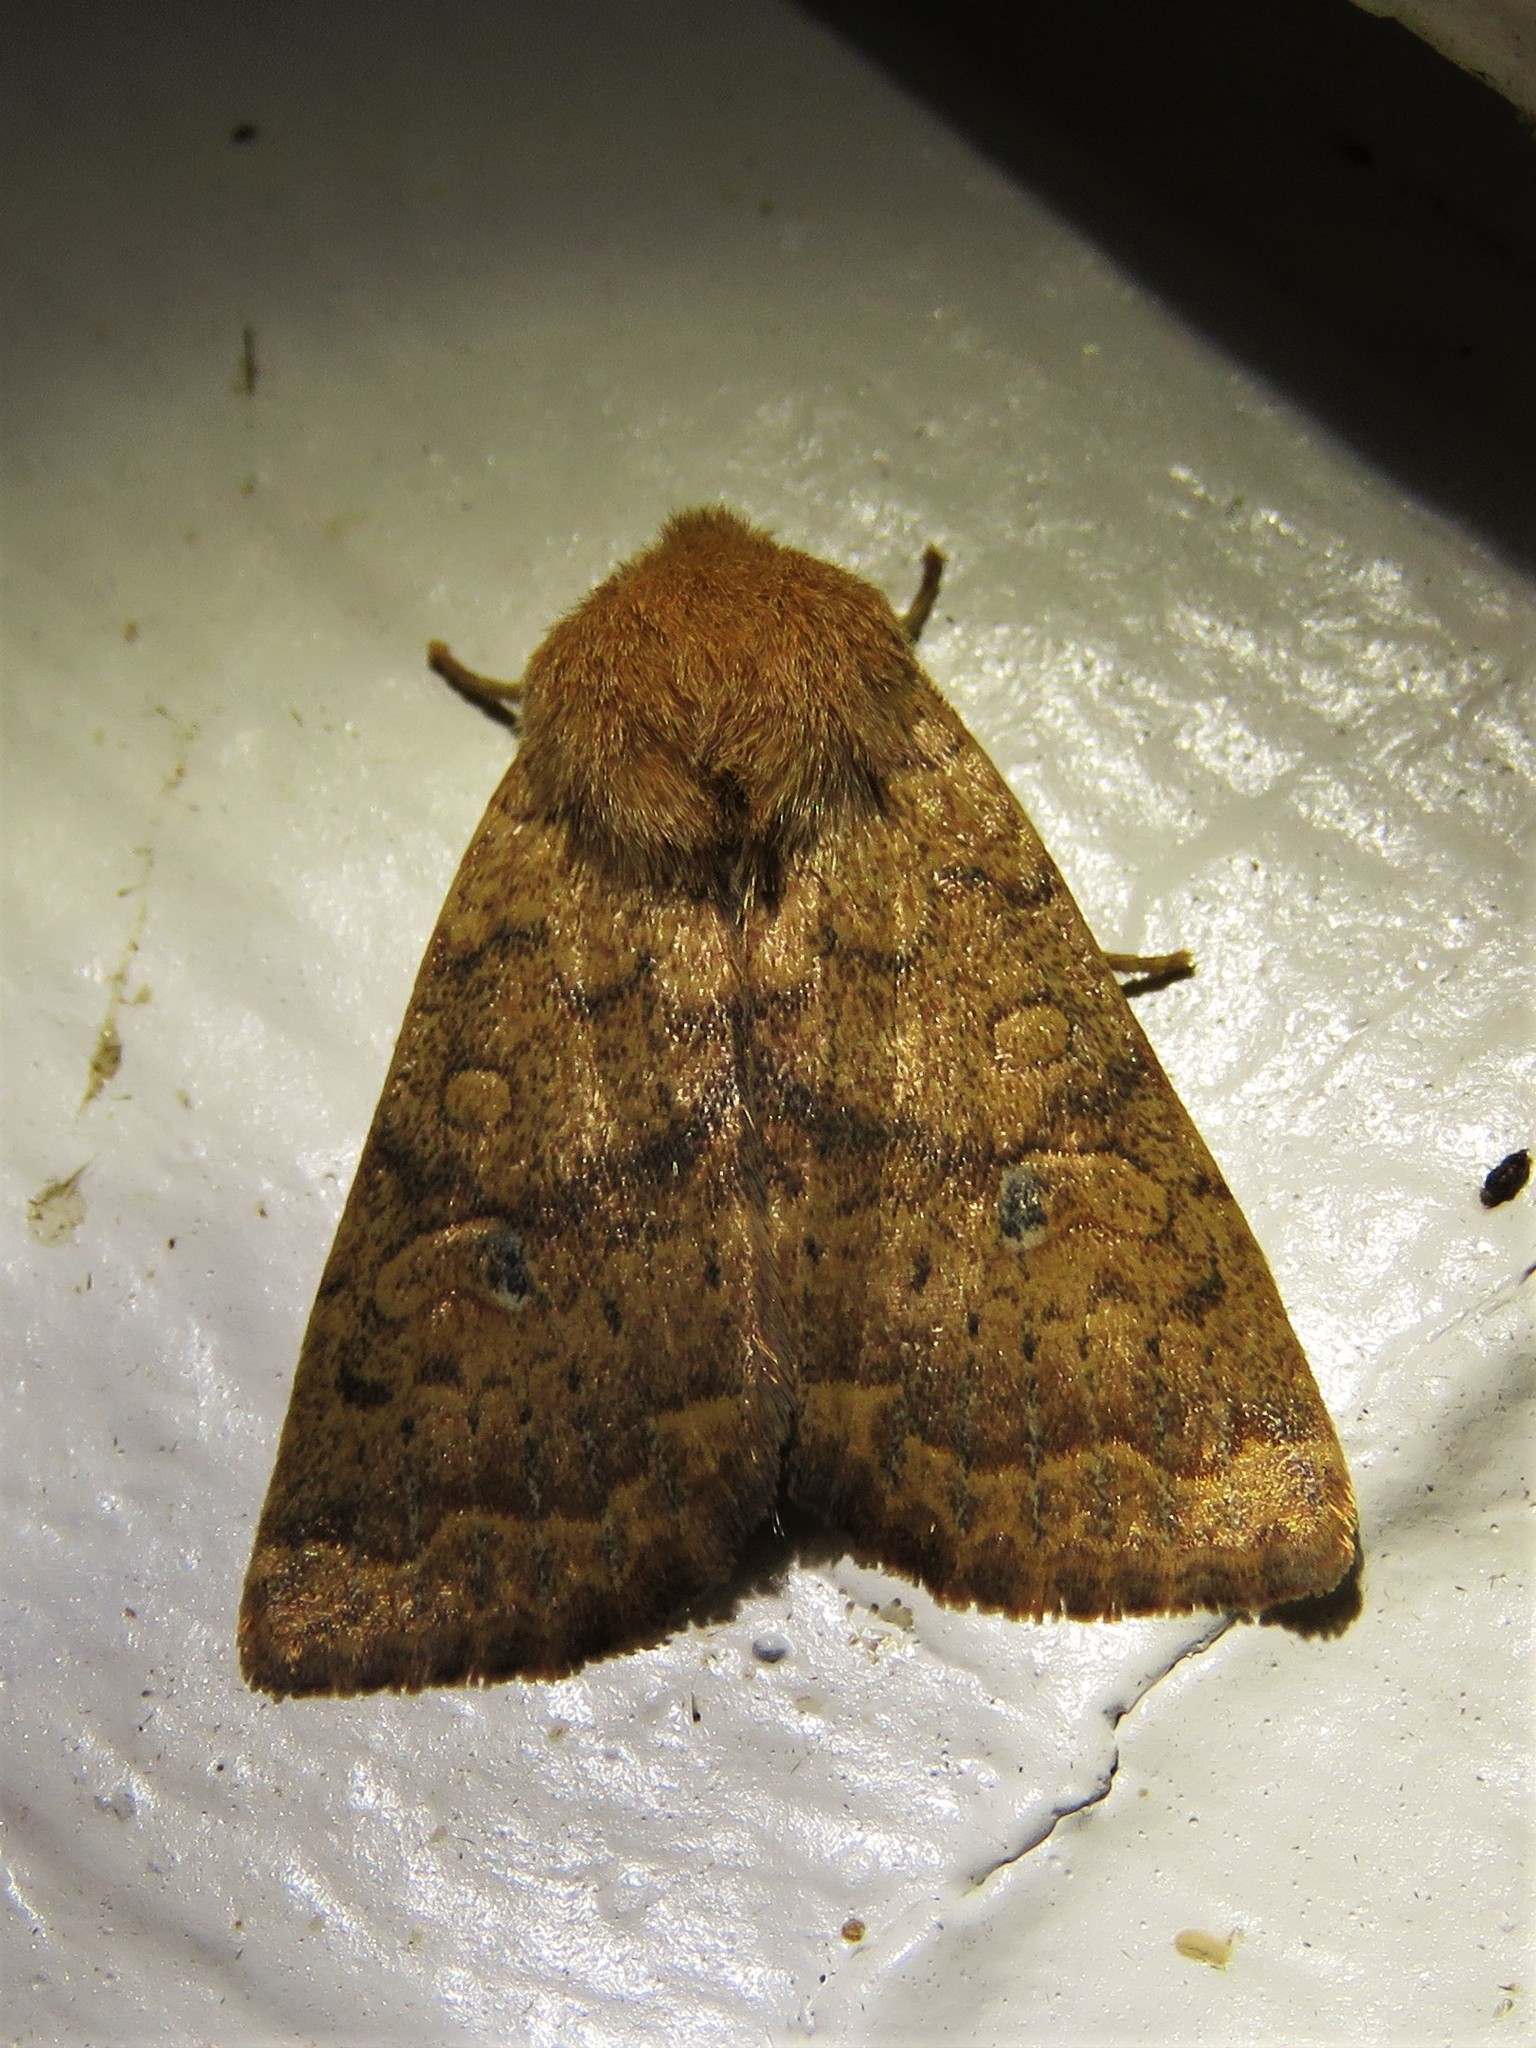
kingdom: Animalia
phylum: Arthropoda
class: Insecta
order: Lepidoptera
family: Noctuidae
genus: Agrochola
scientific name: Agrochola bicolorago
